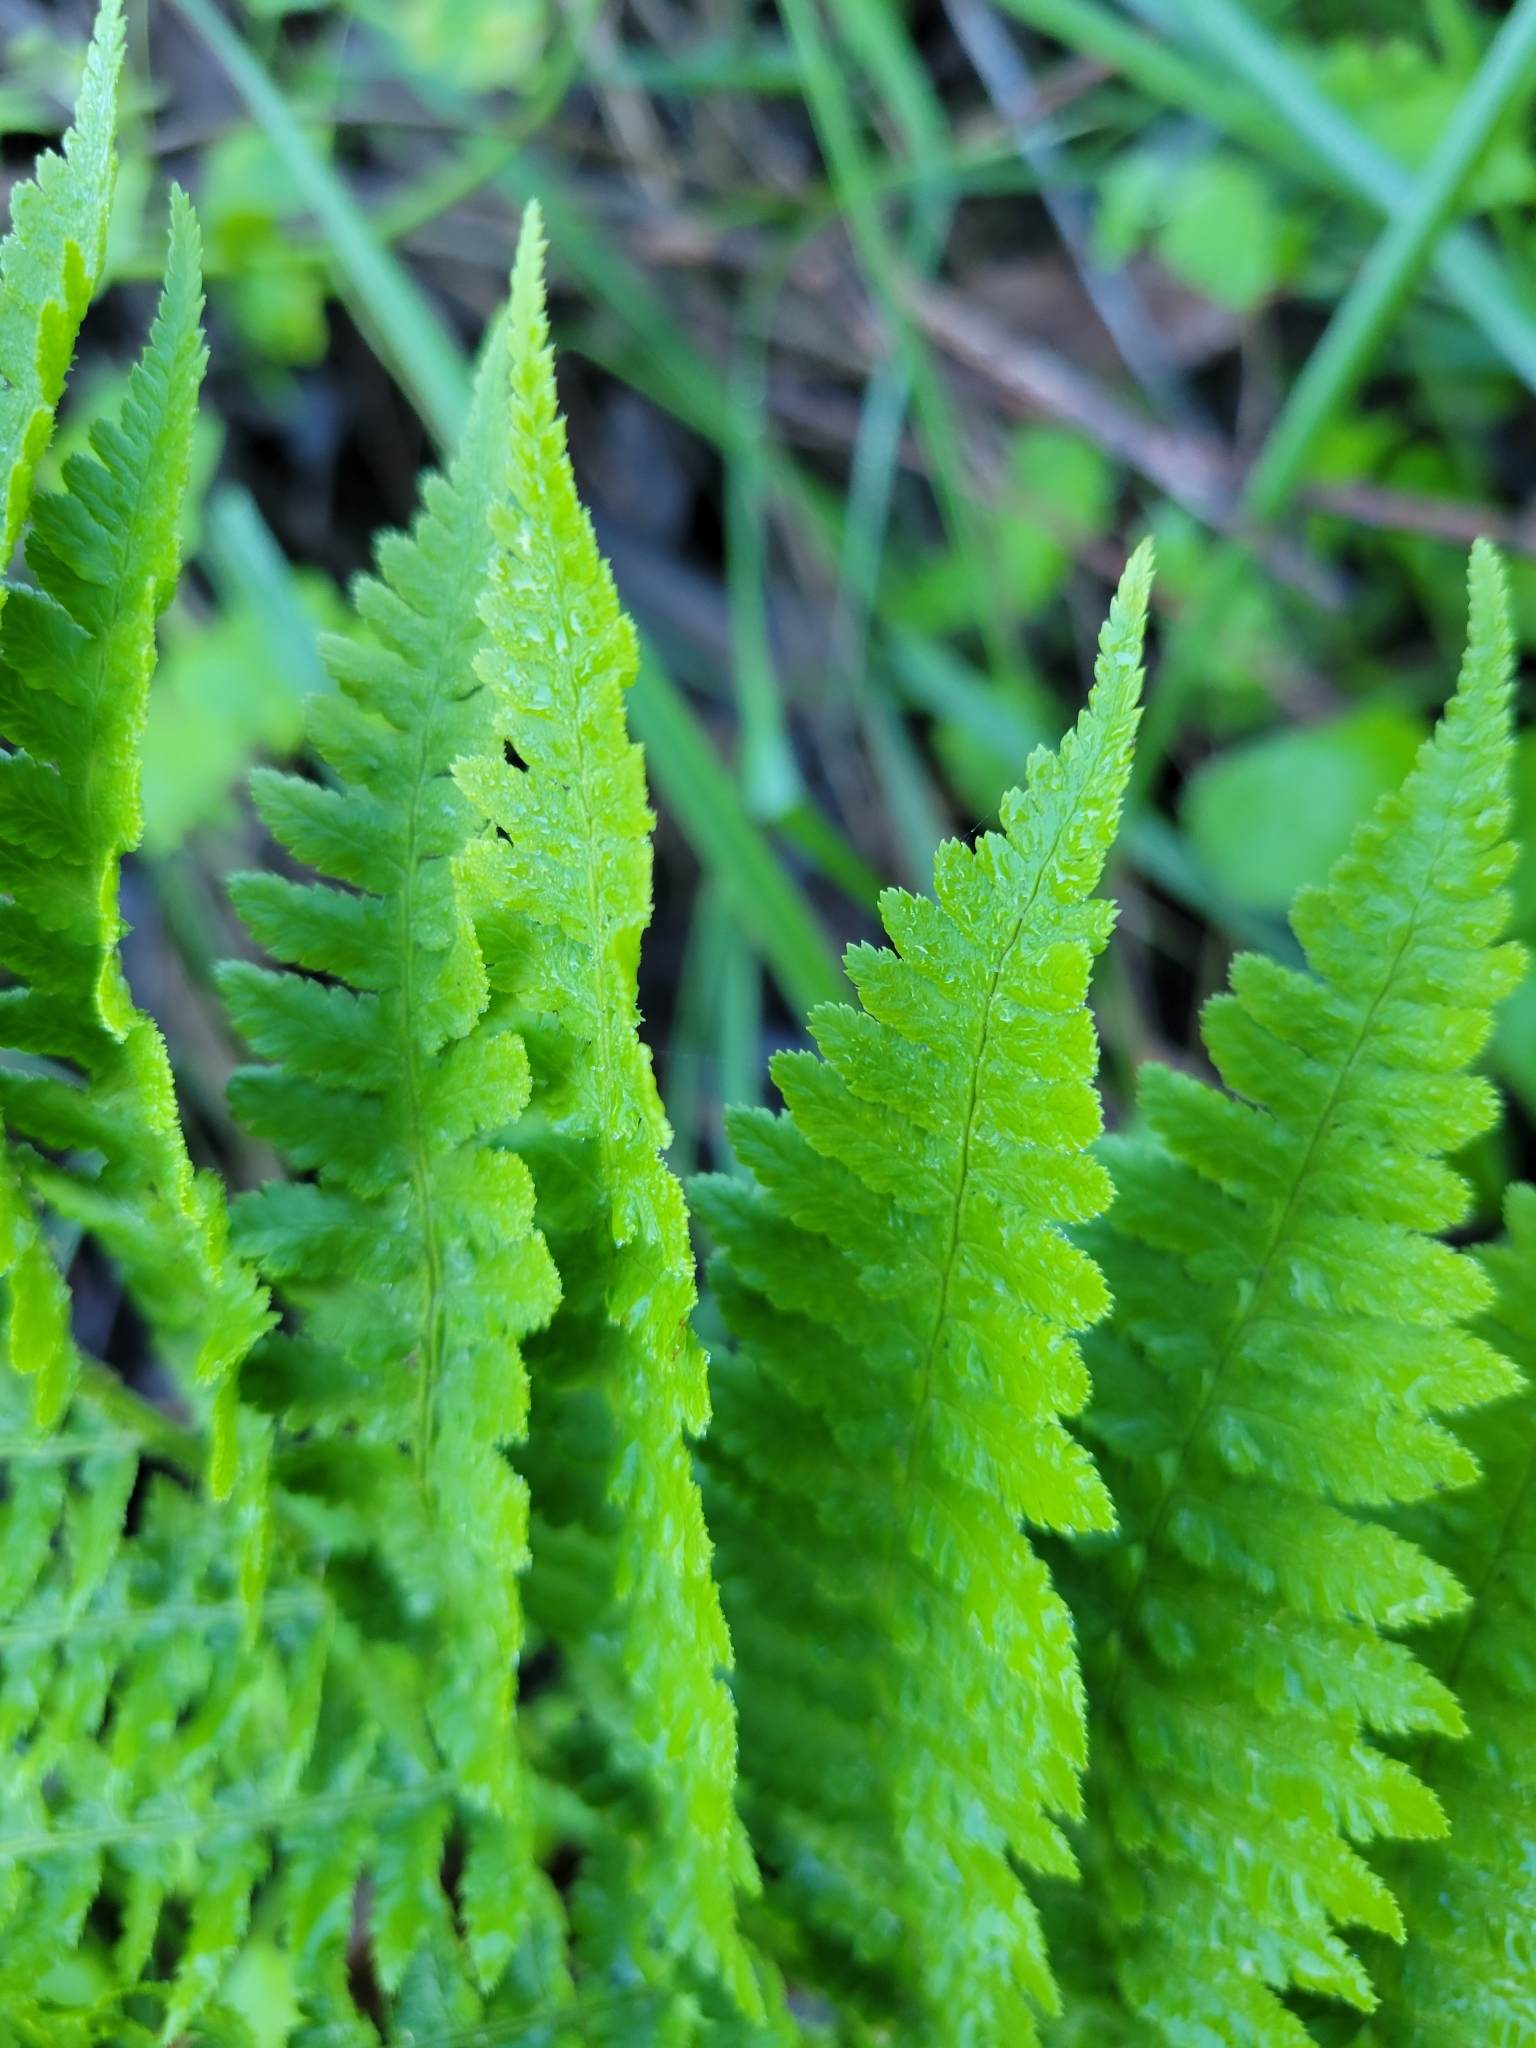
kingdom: Plantae
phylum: Tracheophyta
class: Polypodiopsida
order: Polypodiales
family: Dryopteridaceae
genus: Dryopteris
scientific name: Dryopteris arguta
